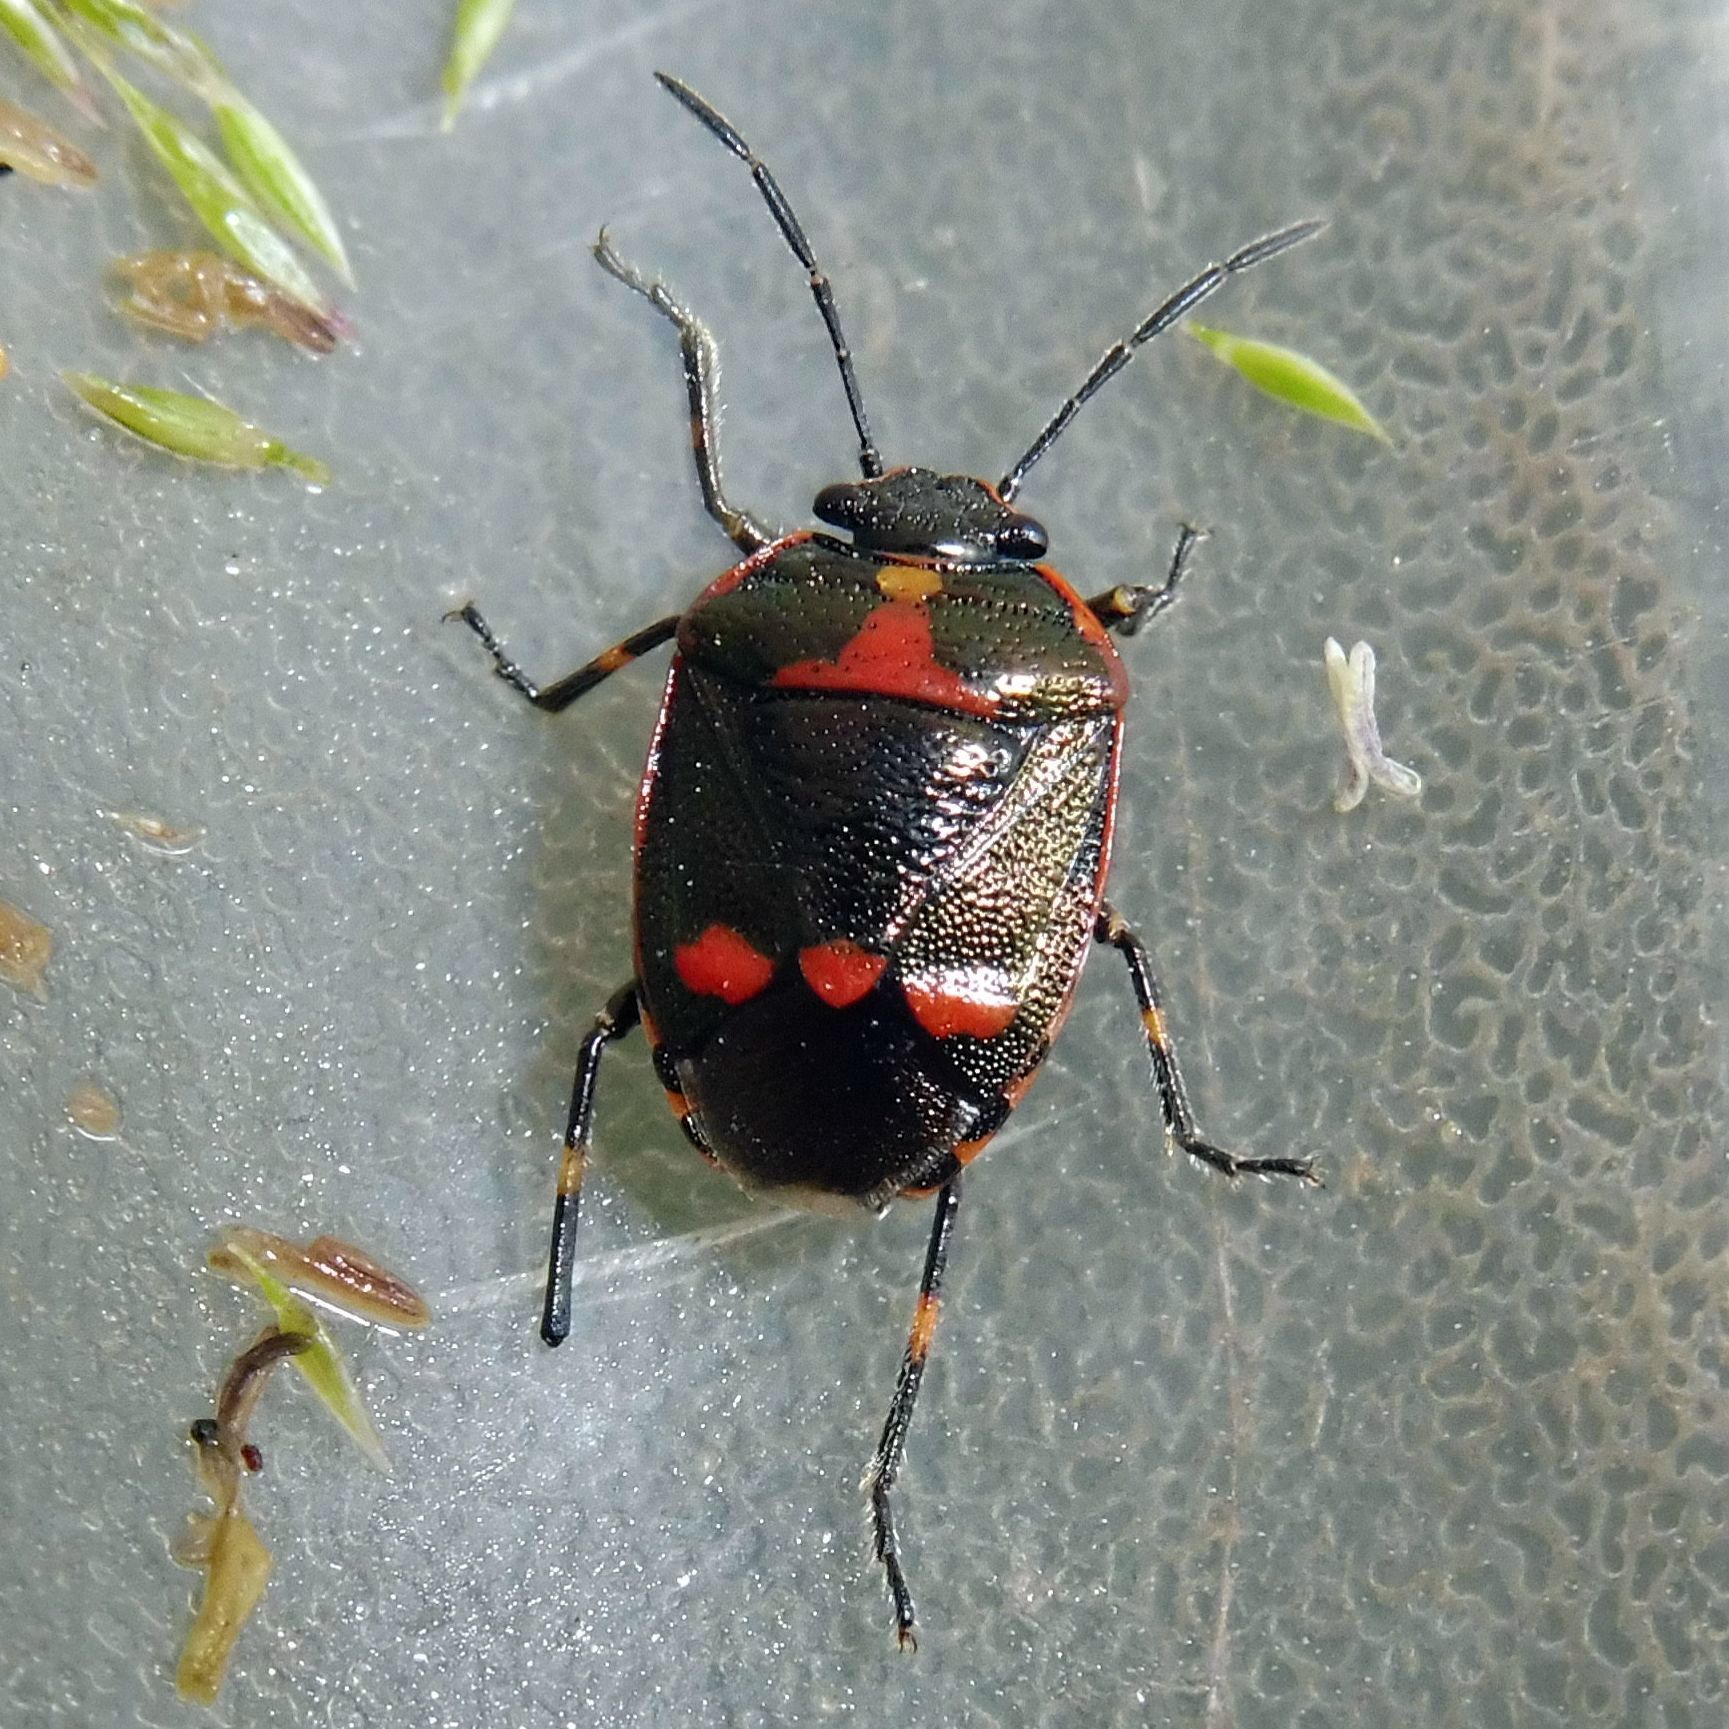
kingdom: Animalia
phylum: Arthropoda
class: Insecta
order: Hemiptera
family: Pentatomidae
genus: Eurydema
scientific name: Eurydema oleracea
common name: Cabbage bug
